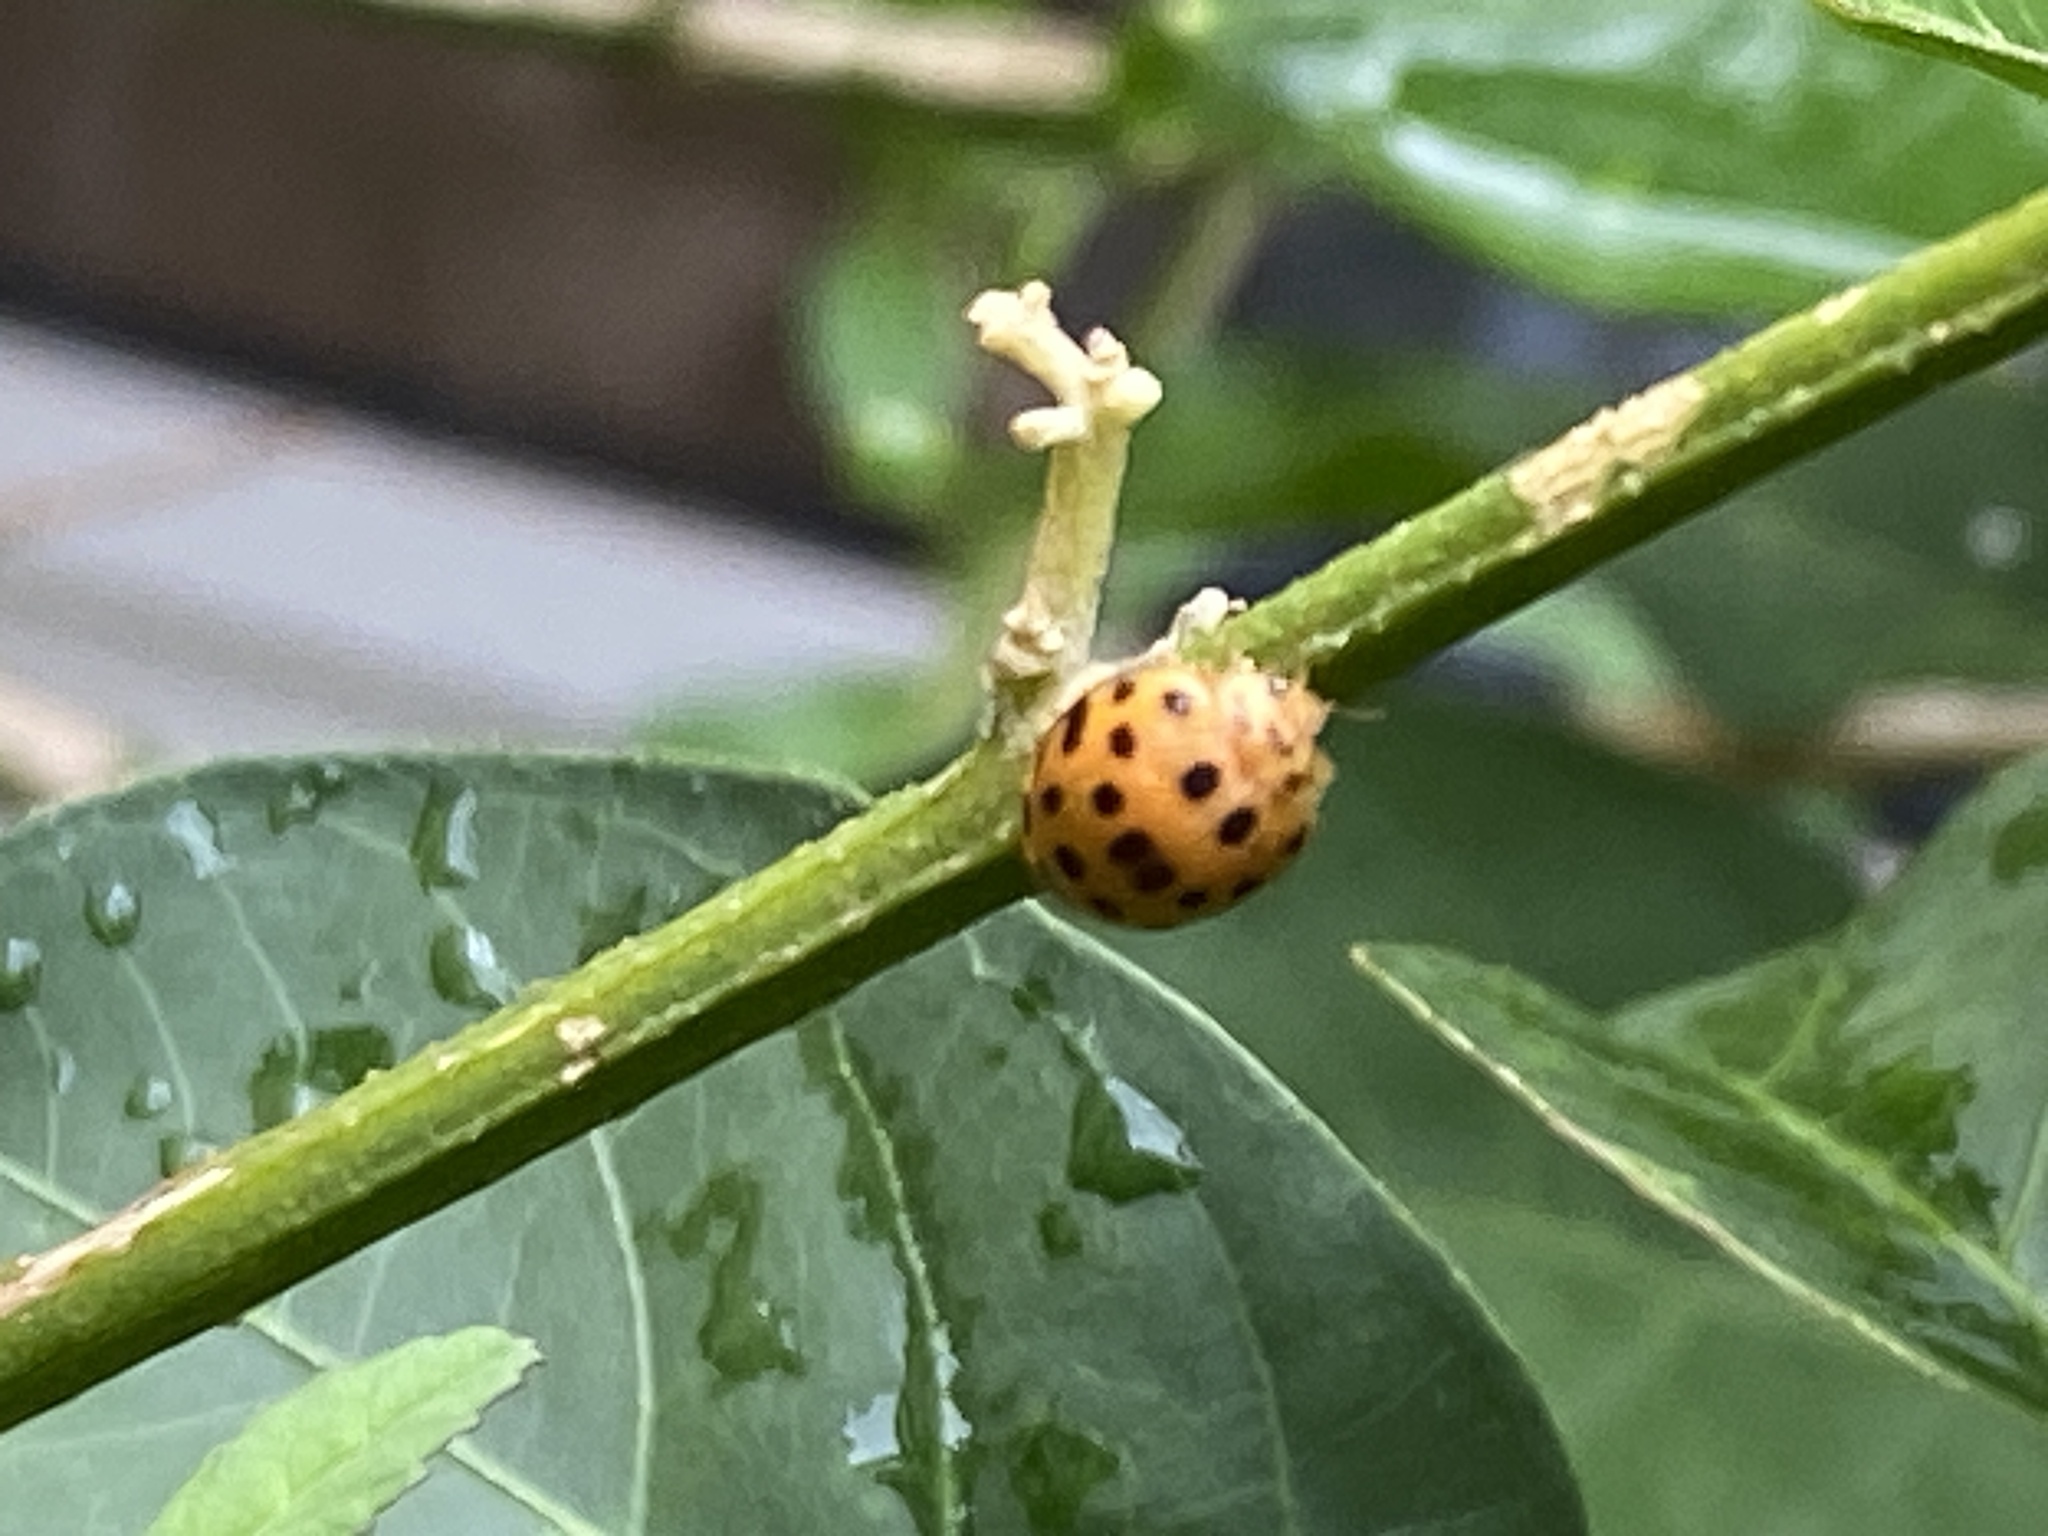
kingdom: Animalia
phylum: Arthropoda
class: Insecta
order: Coleoptera
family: Coccinellidae
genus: Henosepilachna
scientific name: Henosepilachna vigintioctopunctata
